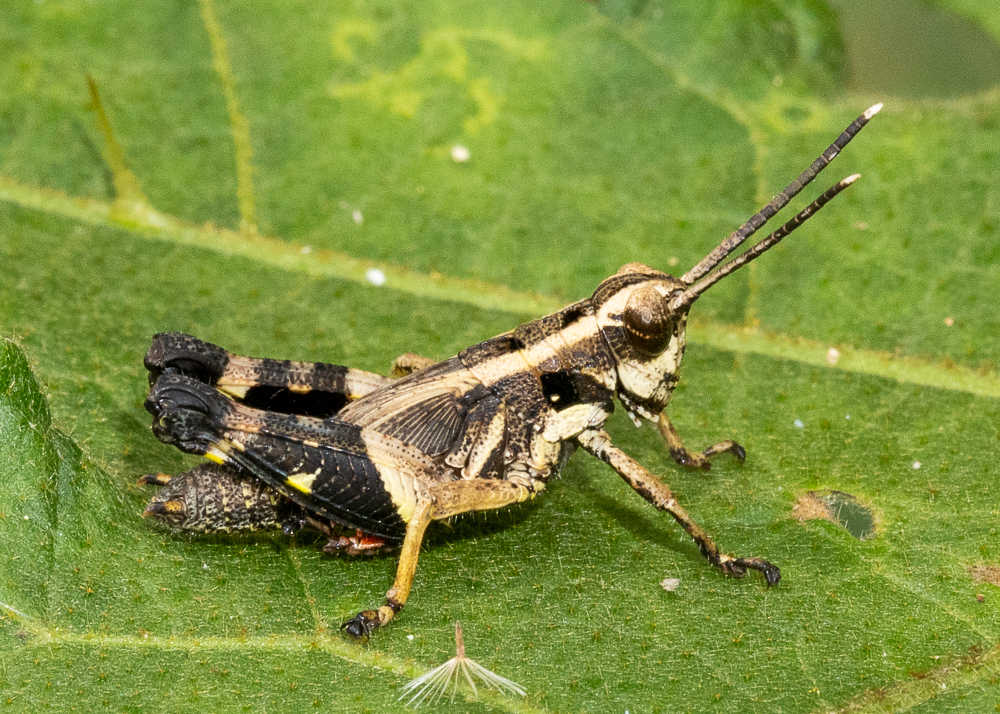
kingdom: Animalia
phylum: Arthropoda
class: Insecta
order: Orthoptera
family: Acrididae
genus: Traulia
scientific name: Traulia ornata
